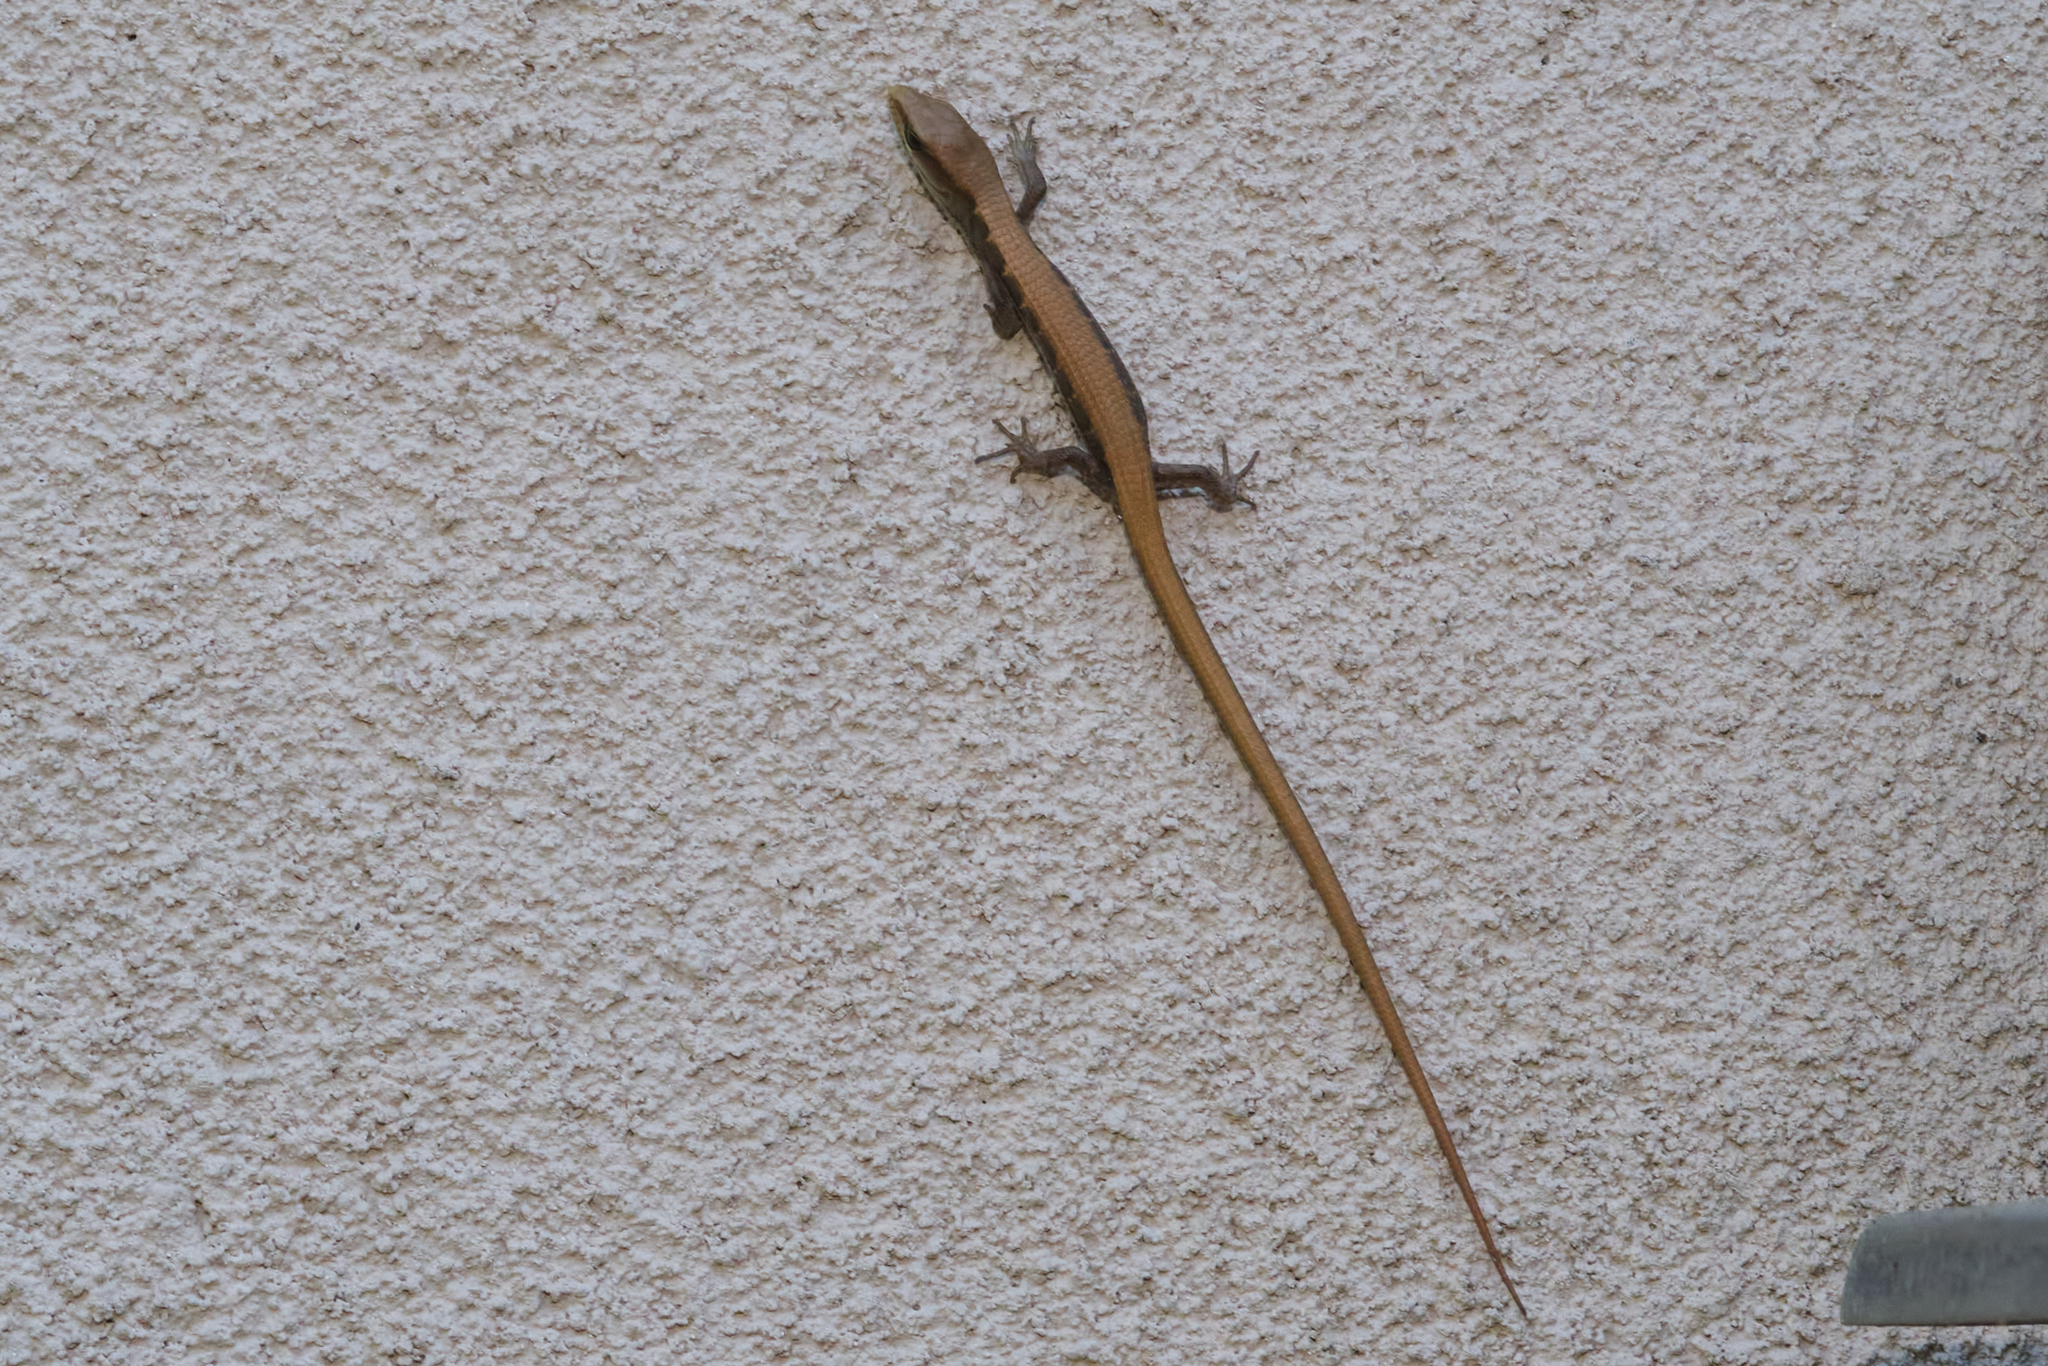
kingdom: Animalia
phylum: Chordata
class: Squamata
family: Anguidae
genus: Elgaria
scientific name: Elgaria multicarinata
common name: Southern alligator lizard
